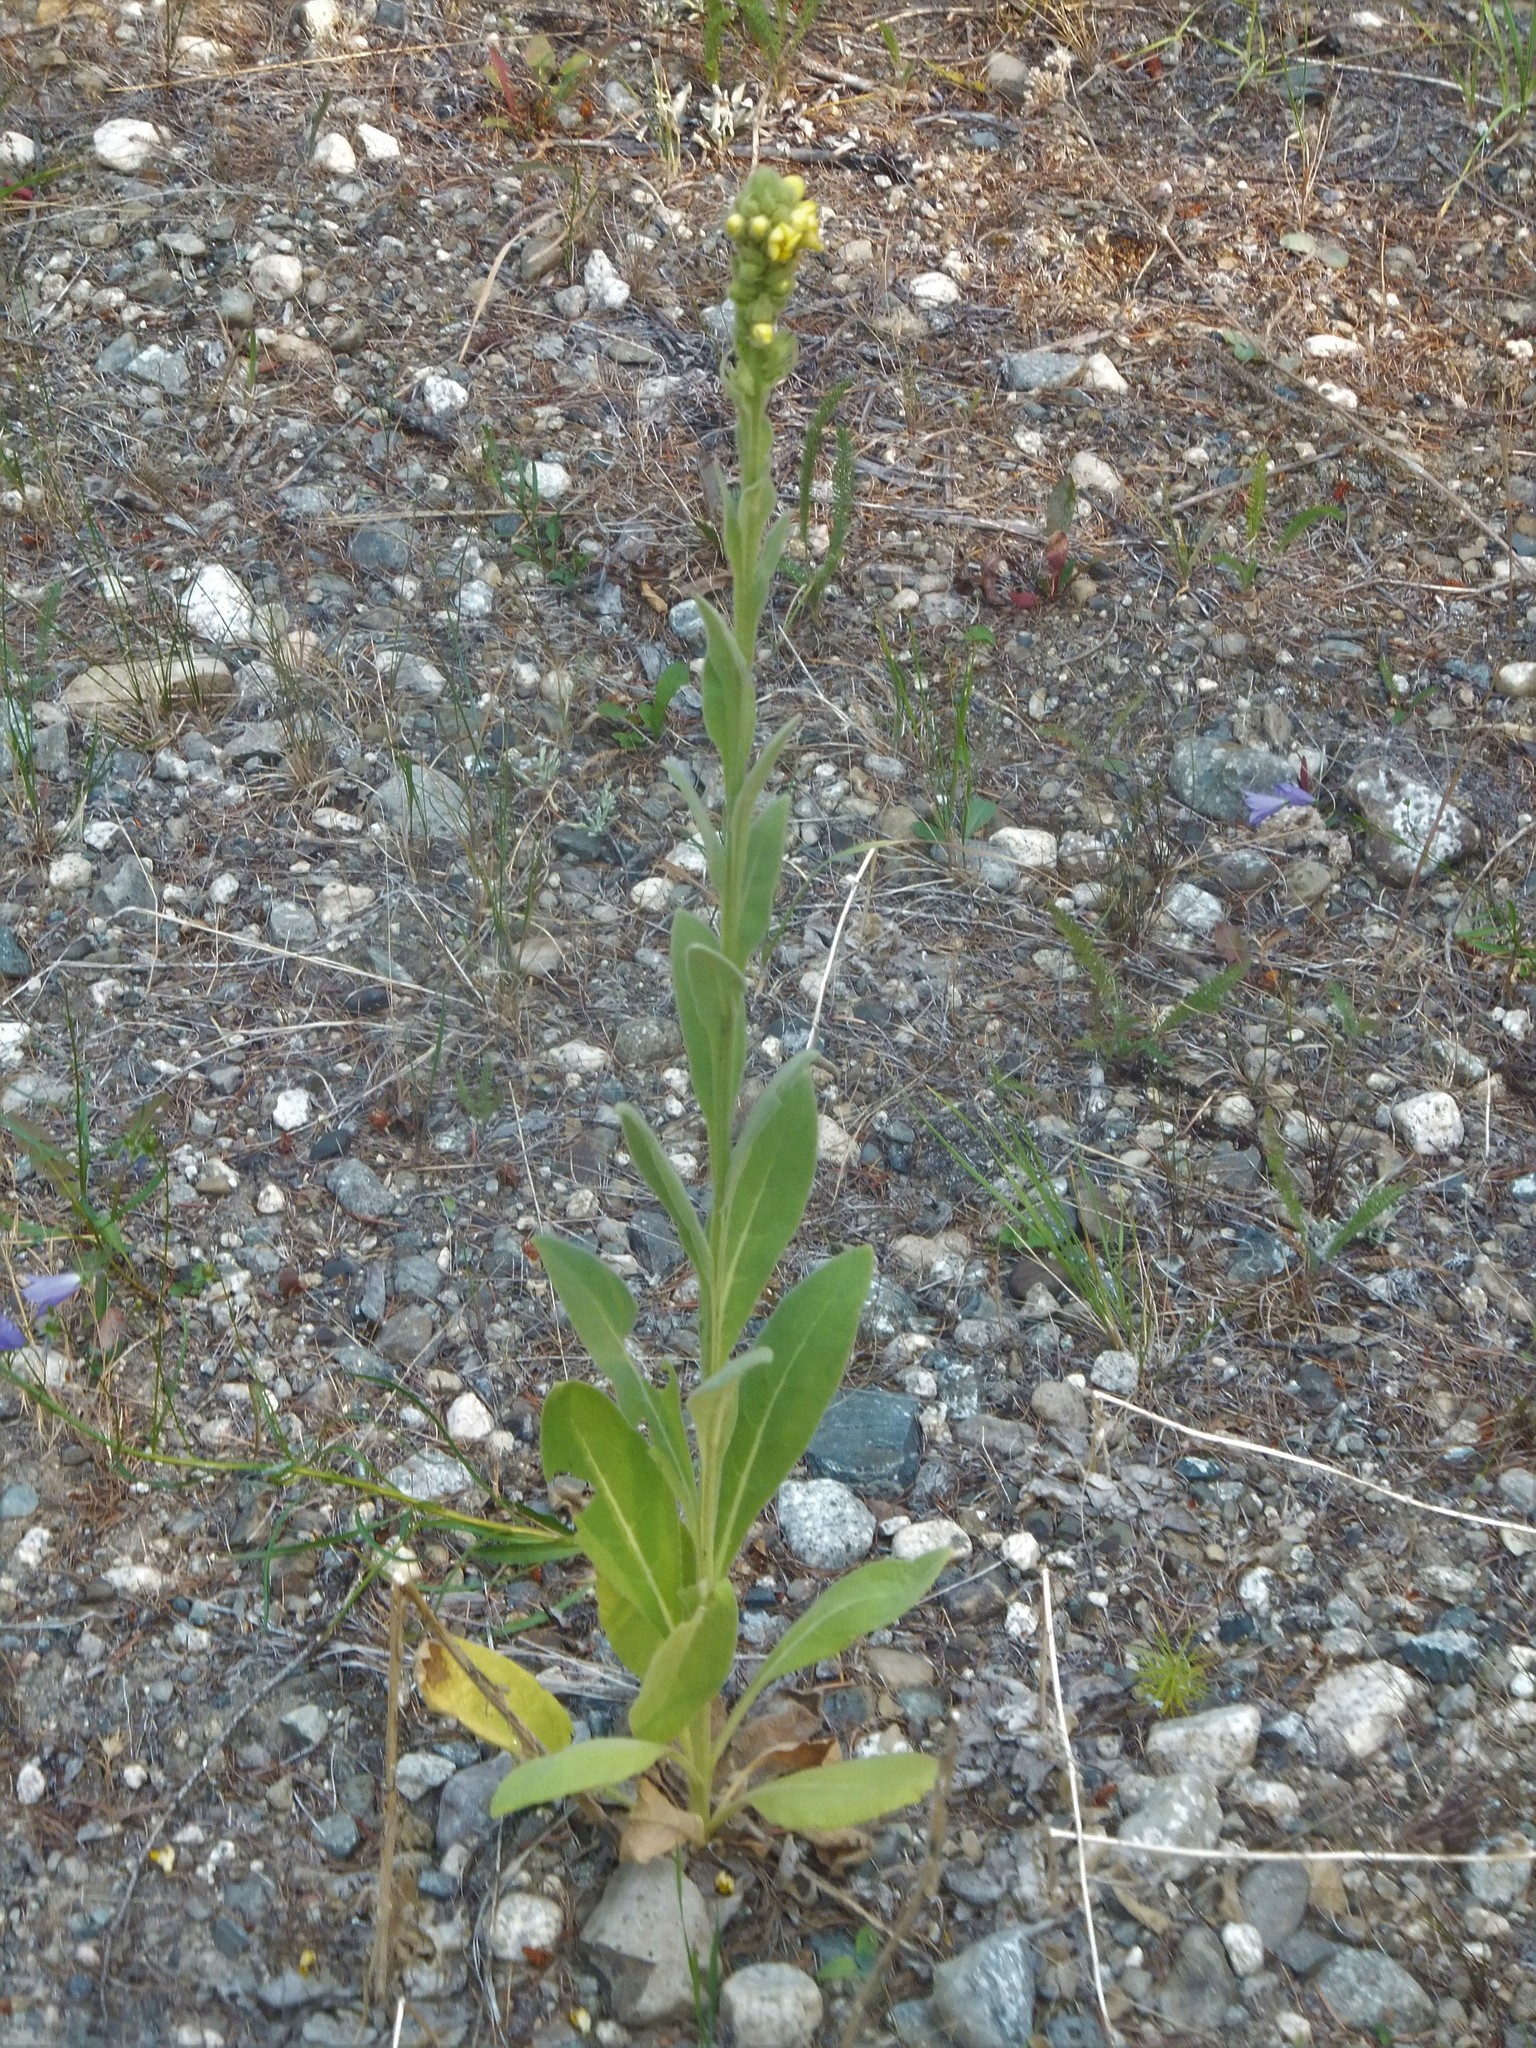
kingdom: Plantae
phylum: Tracheophyta
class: Magnoliopsida
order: Lamiales
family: Scrophulariaceae
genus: Verbascum
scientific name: Verbascum thapsus
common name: Common mullein
